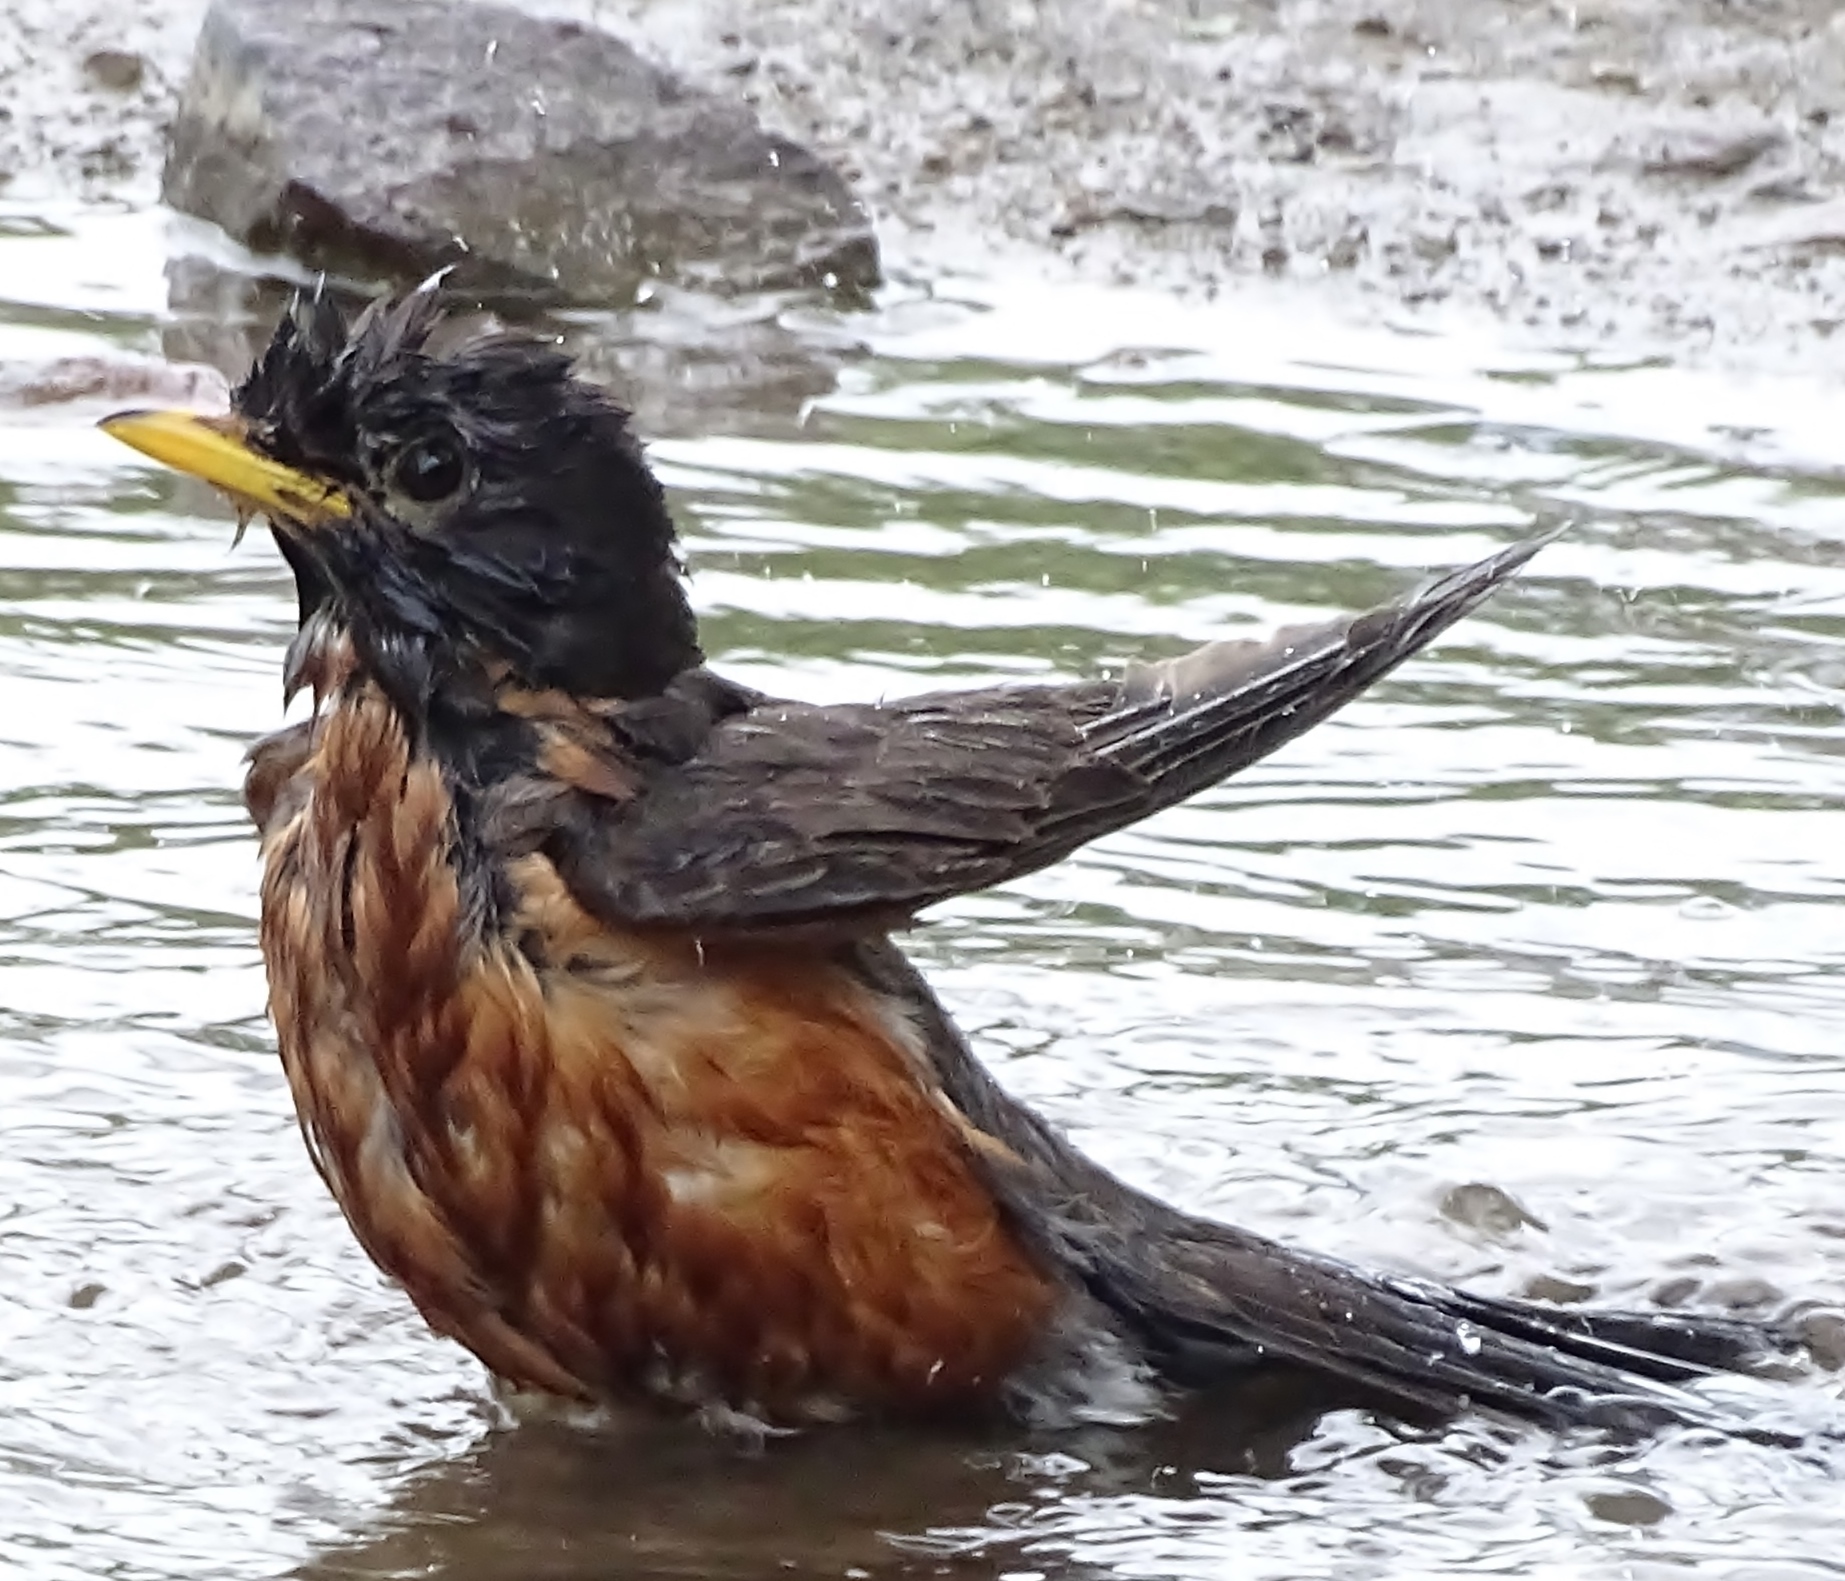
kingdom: Animalia
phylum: Chordata
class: Aves
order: Passeriformes
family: Turdidae
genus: Turdus
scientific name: Turdus migratorius
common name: American robin
